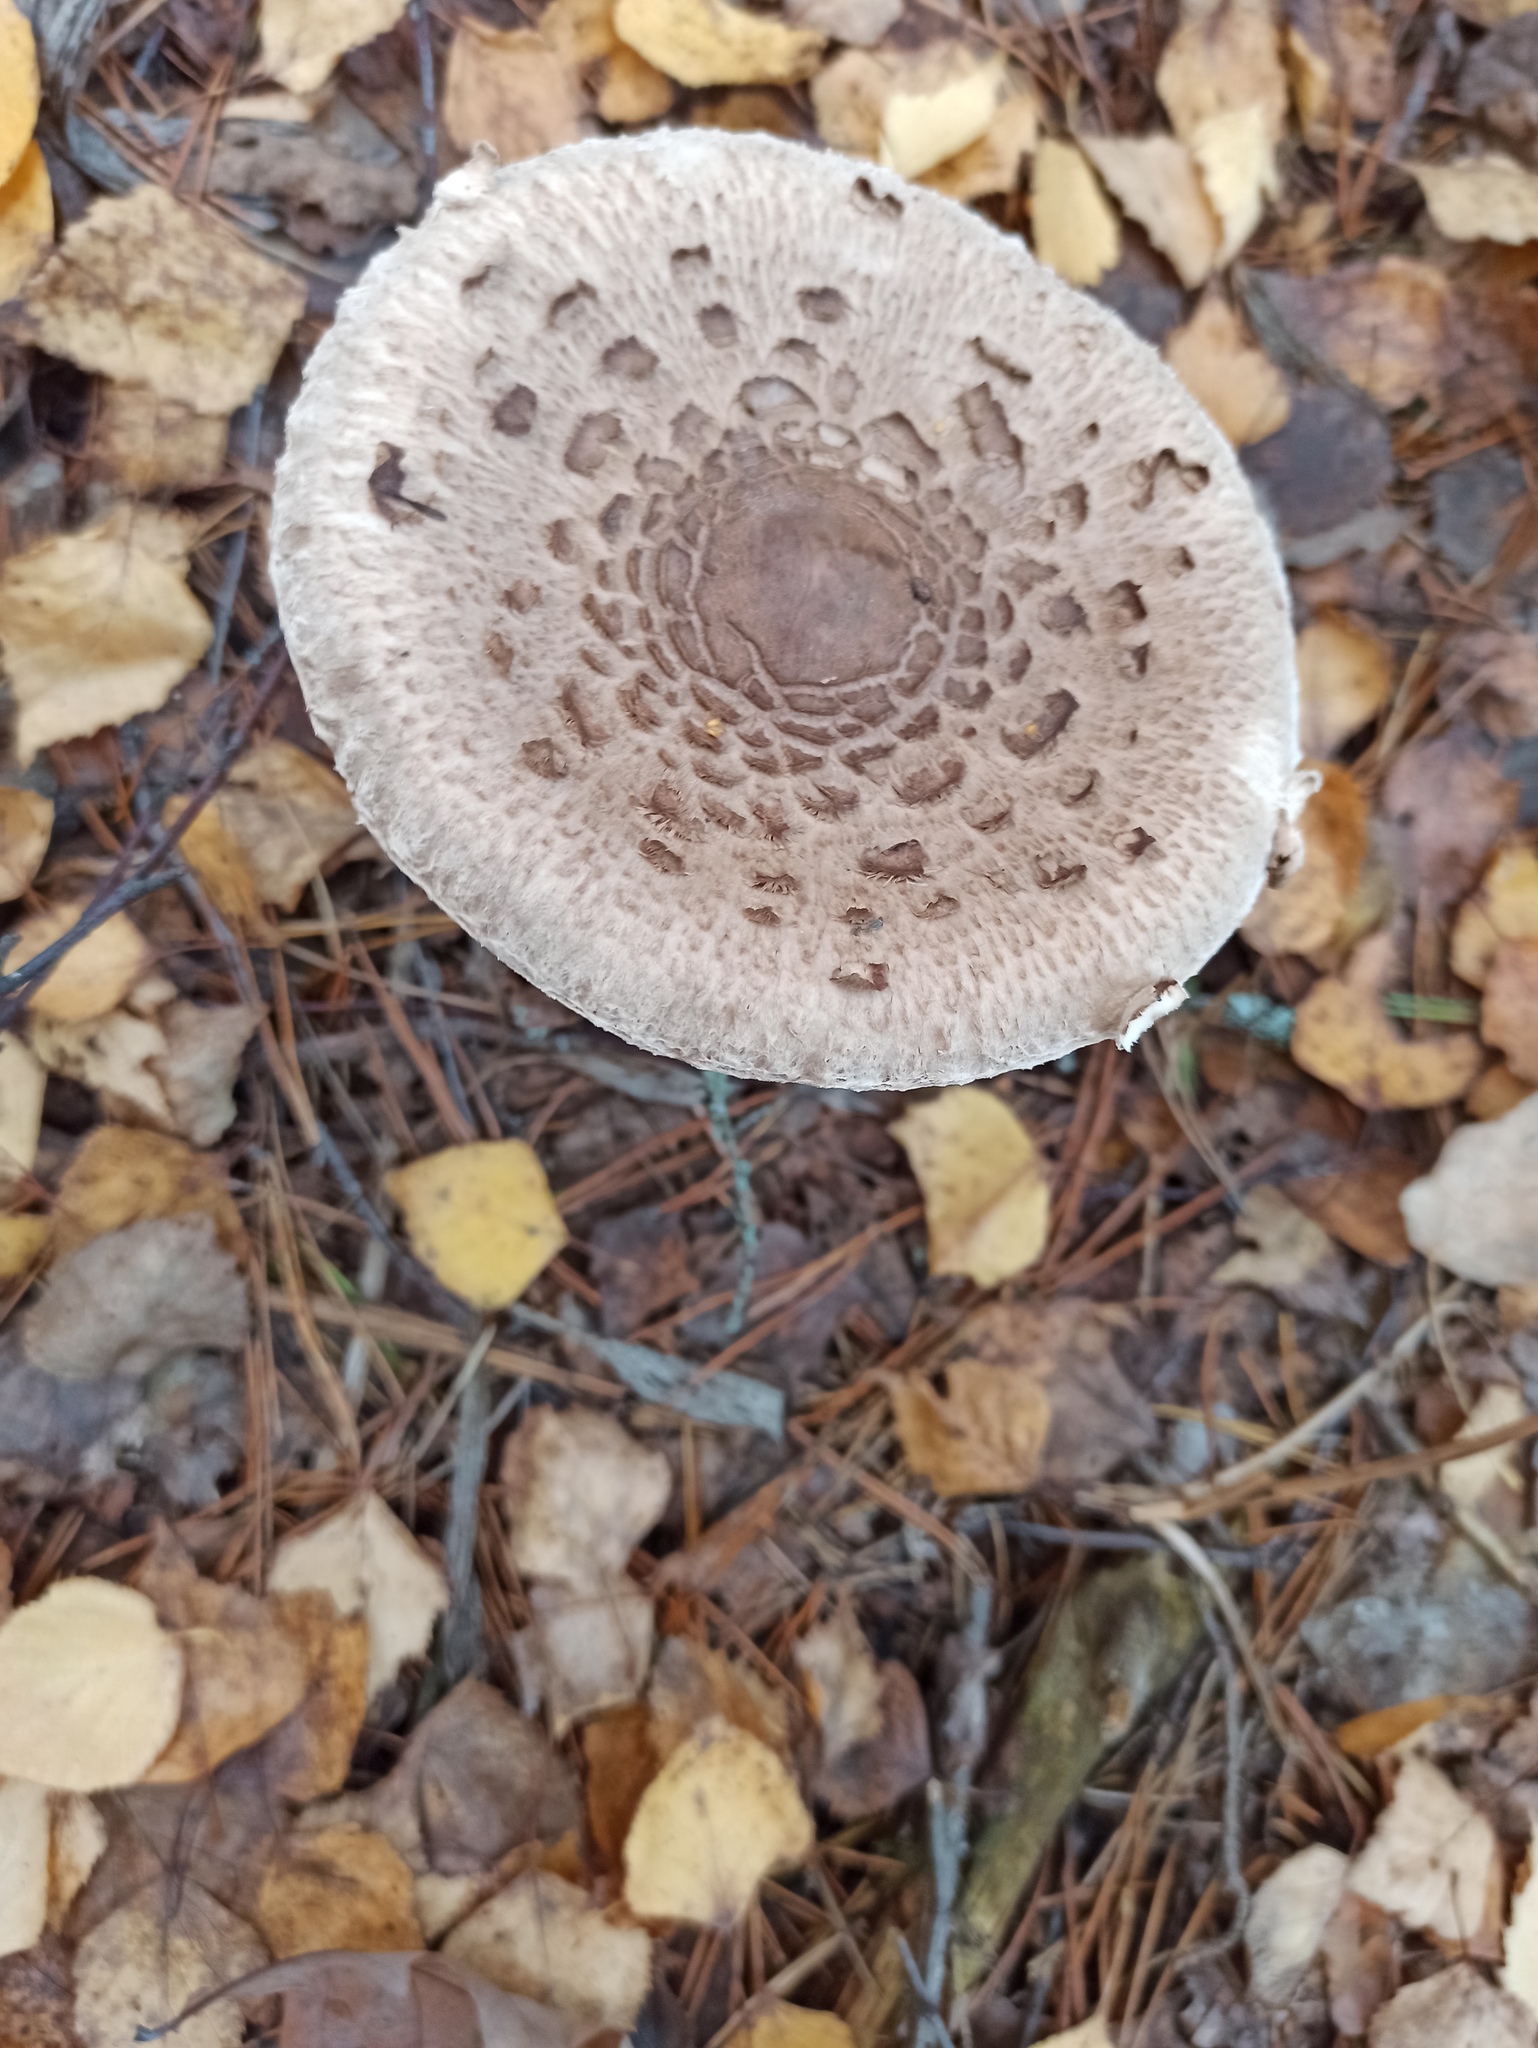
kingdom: Fungi
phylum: Basidiomycota
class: Agaricomycetes
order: Agaricales
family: Agaricaceae
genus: Macrolepiota
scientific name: Macrolepiota procera
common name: Parasol
